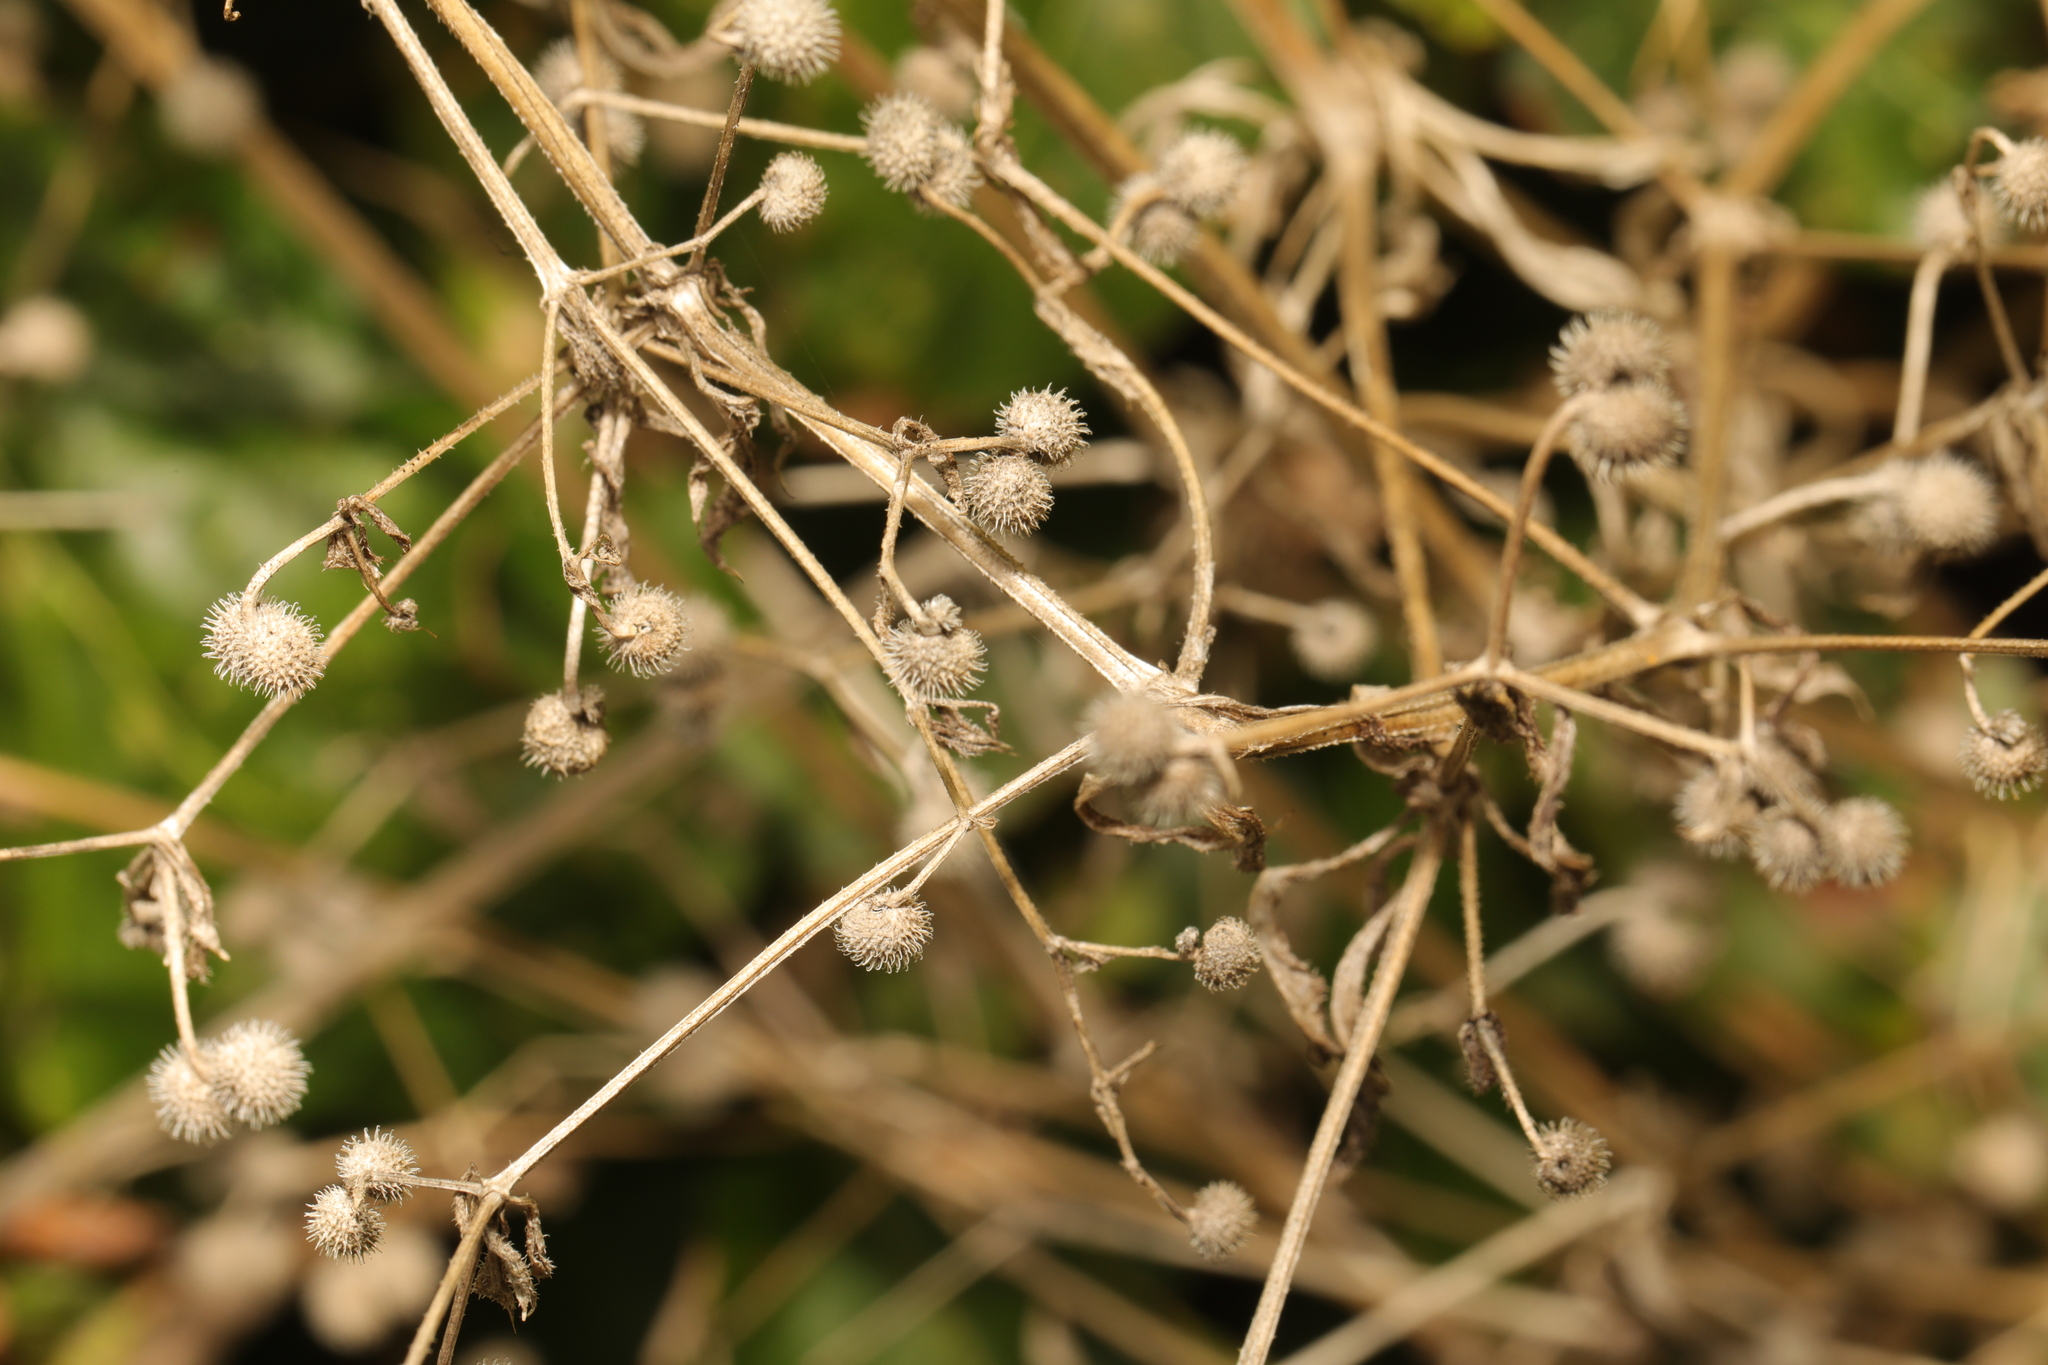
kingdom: Plantae
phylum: Tracheophyta
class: Magnoliopsida
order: Gentianales
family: Rubiaceae
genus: Galium
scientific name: Galium aparine
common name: Cleavers
